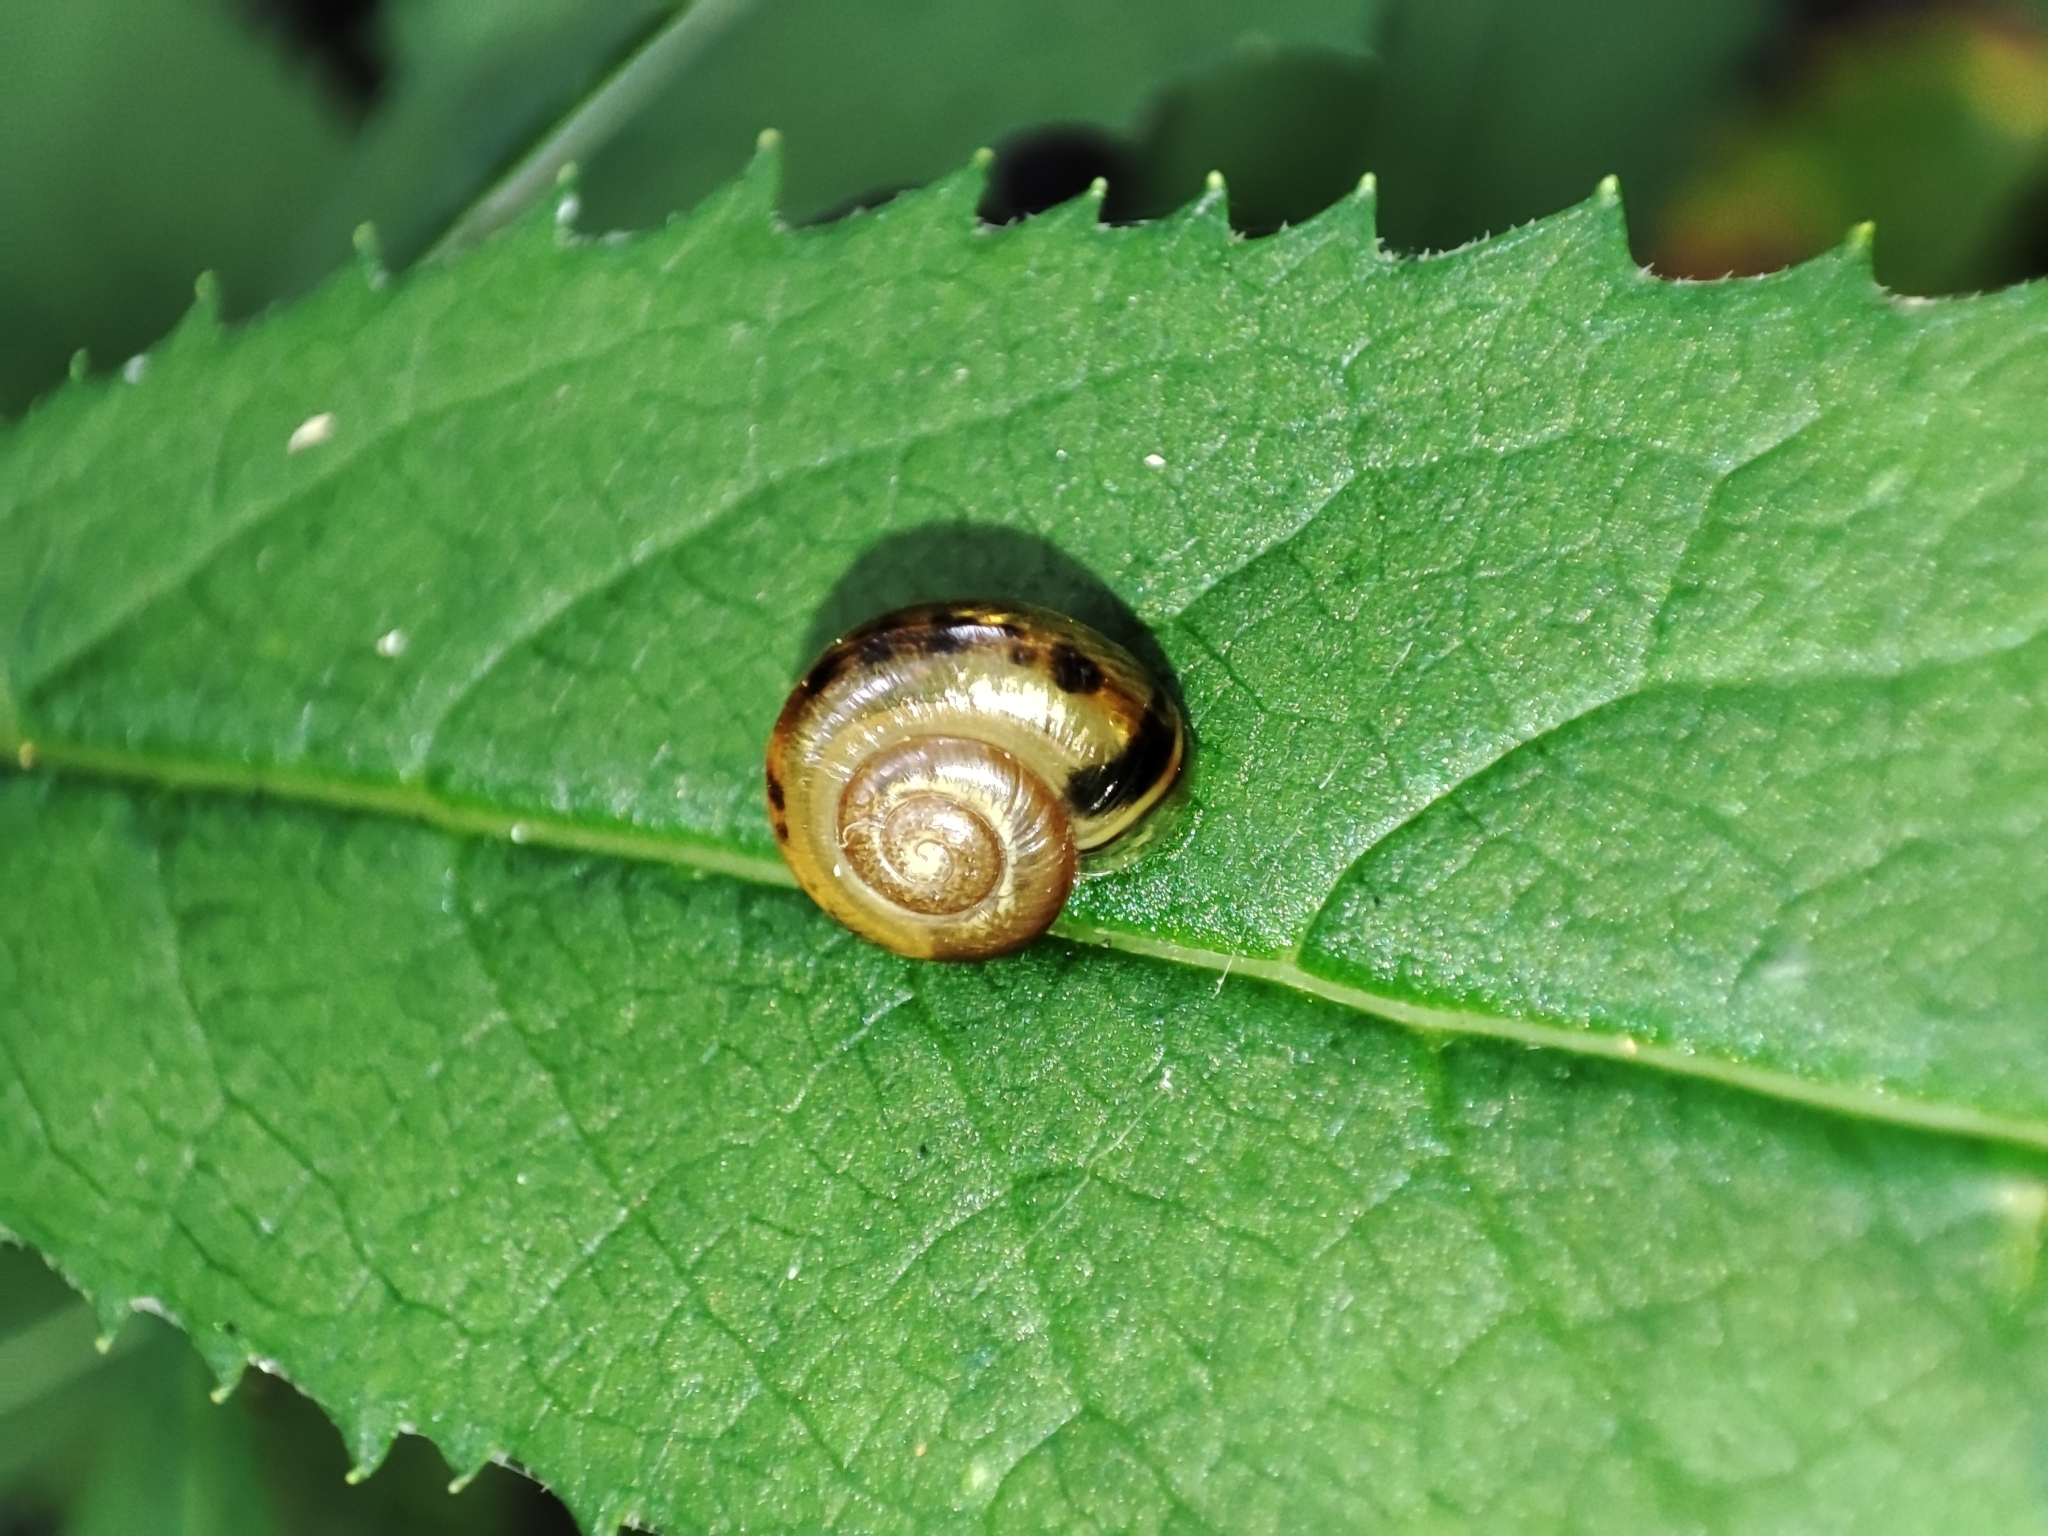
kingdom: Animalia
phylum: Mollusca
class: Gastropoda
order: Stylommatophora
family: Helicidae
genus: Faustina
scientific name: Faustina faustina
